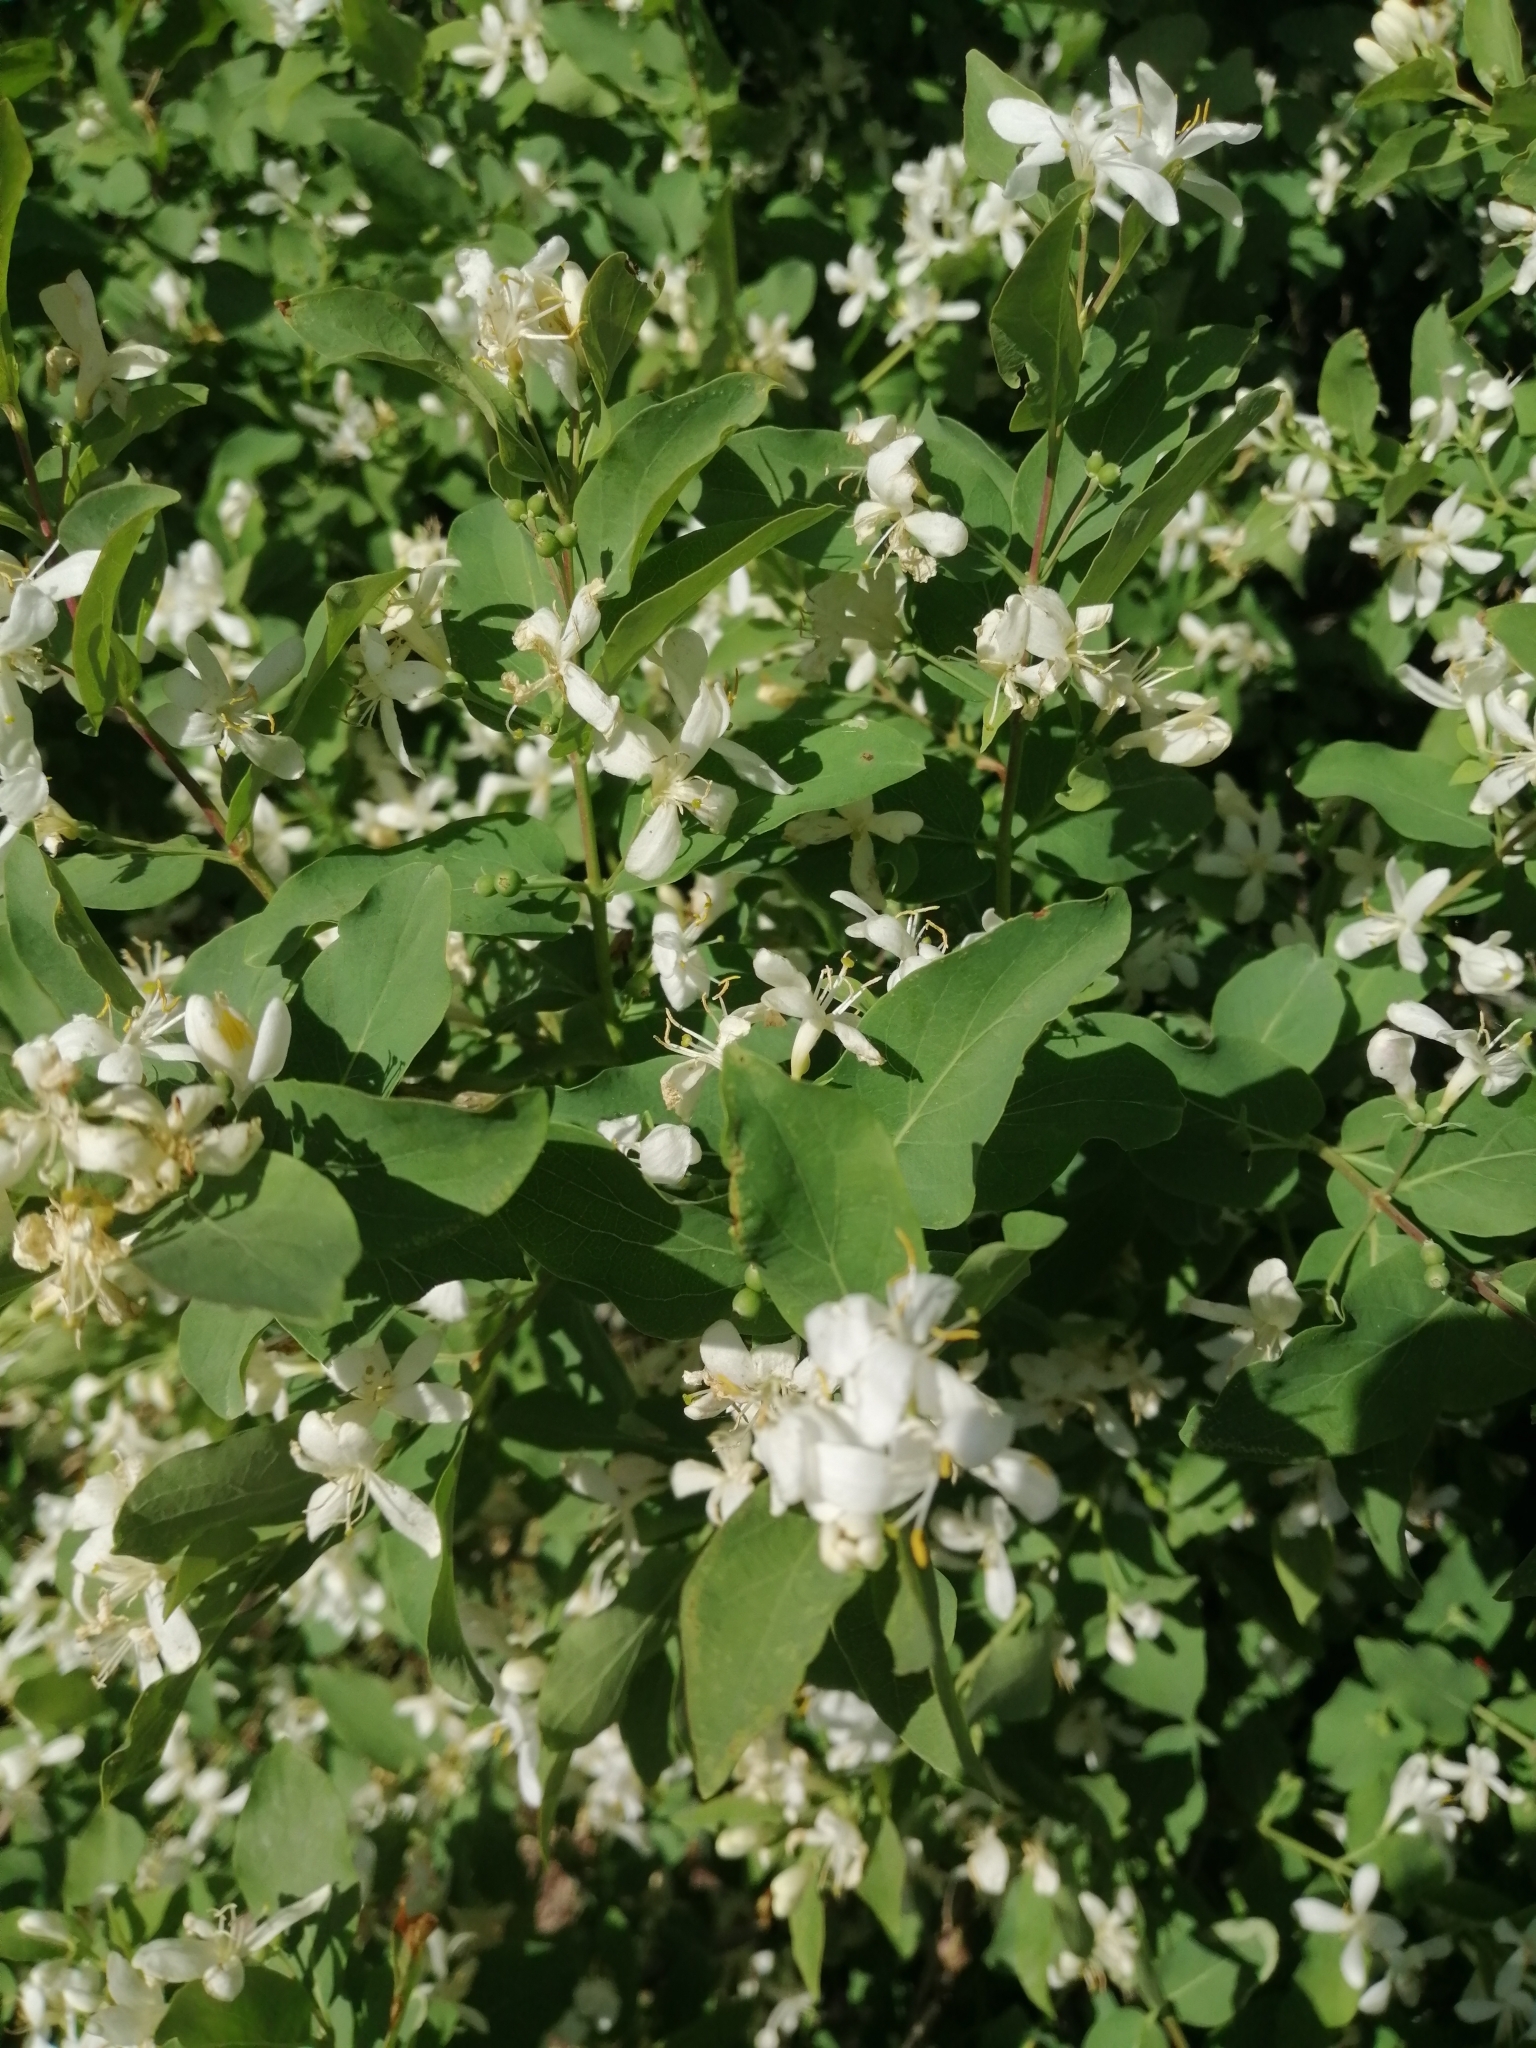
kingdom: Plantae
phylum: Tracheophyta
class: Magnoliopsida
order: Dipsacales
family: Caprifoliaceae
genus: Lonicera
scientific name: Lonicera tatarica
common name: Tatarian honeysuckle
